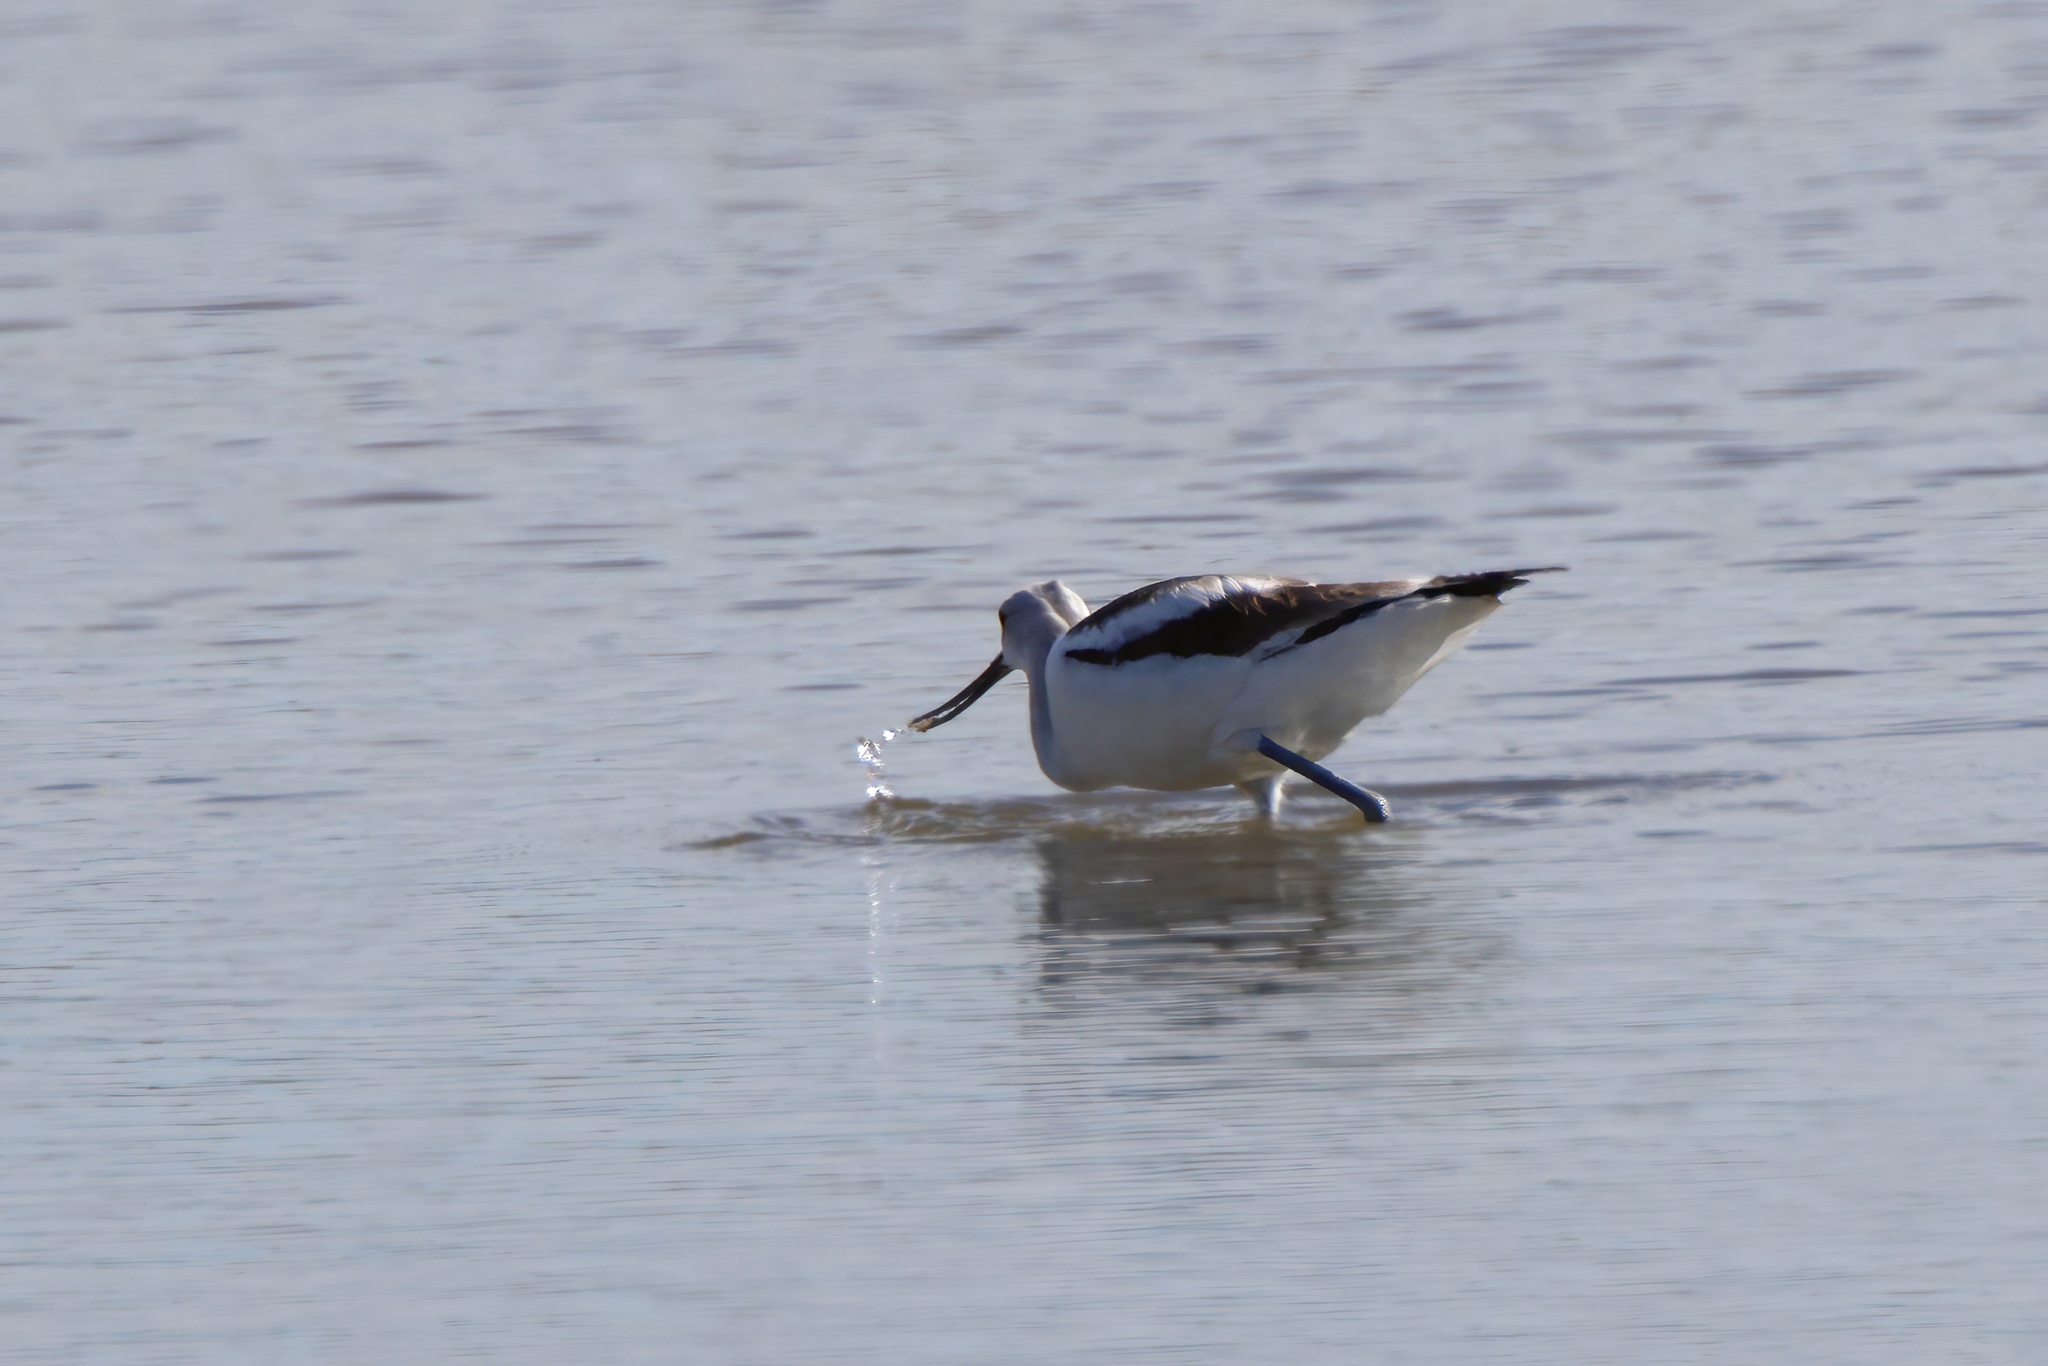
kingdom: Animalia
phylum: Chordata
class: Aves
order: Charadriiformes
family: Recurvirostridae
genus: Recurvirostra
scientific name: Recurvirostra americana
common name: American avocet
